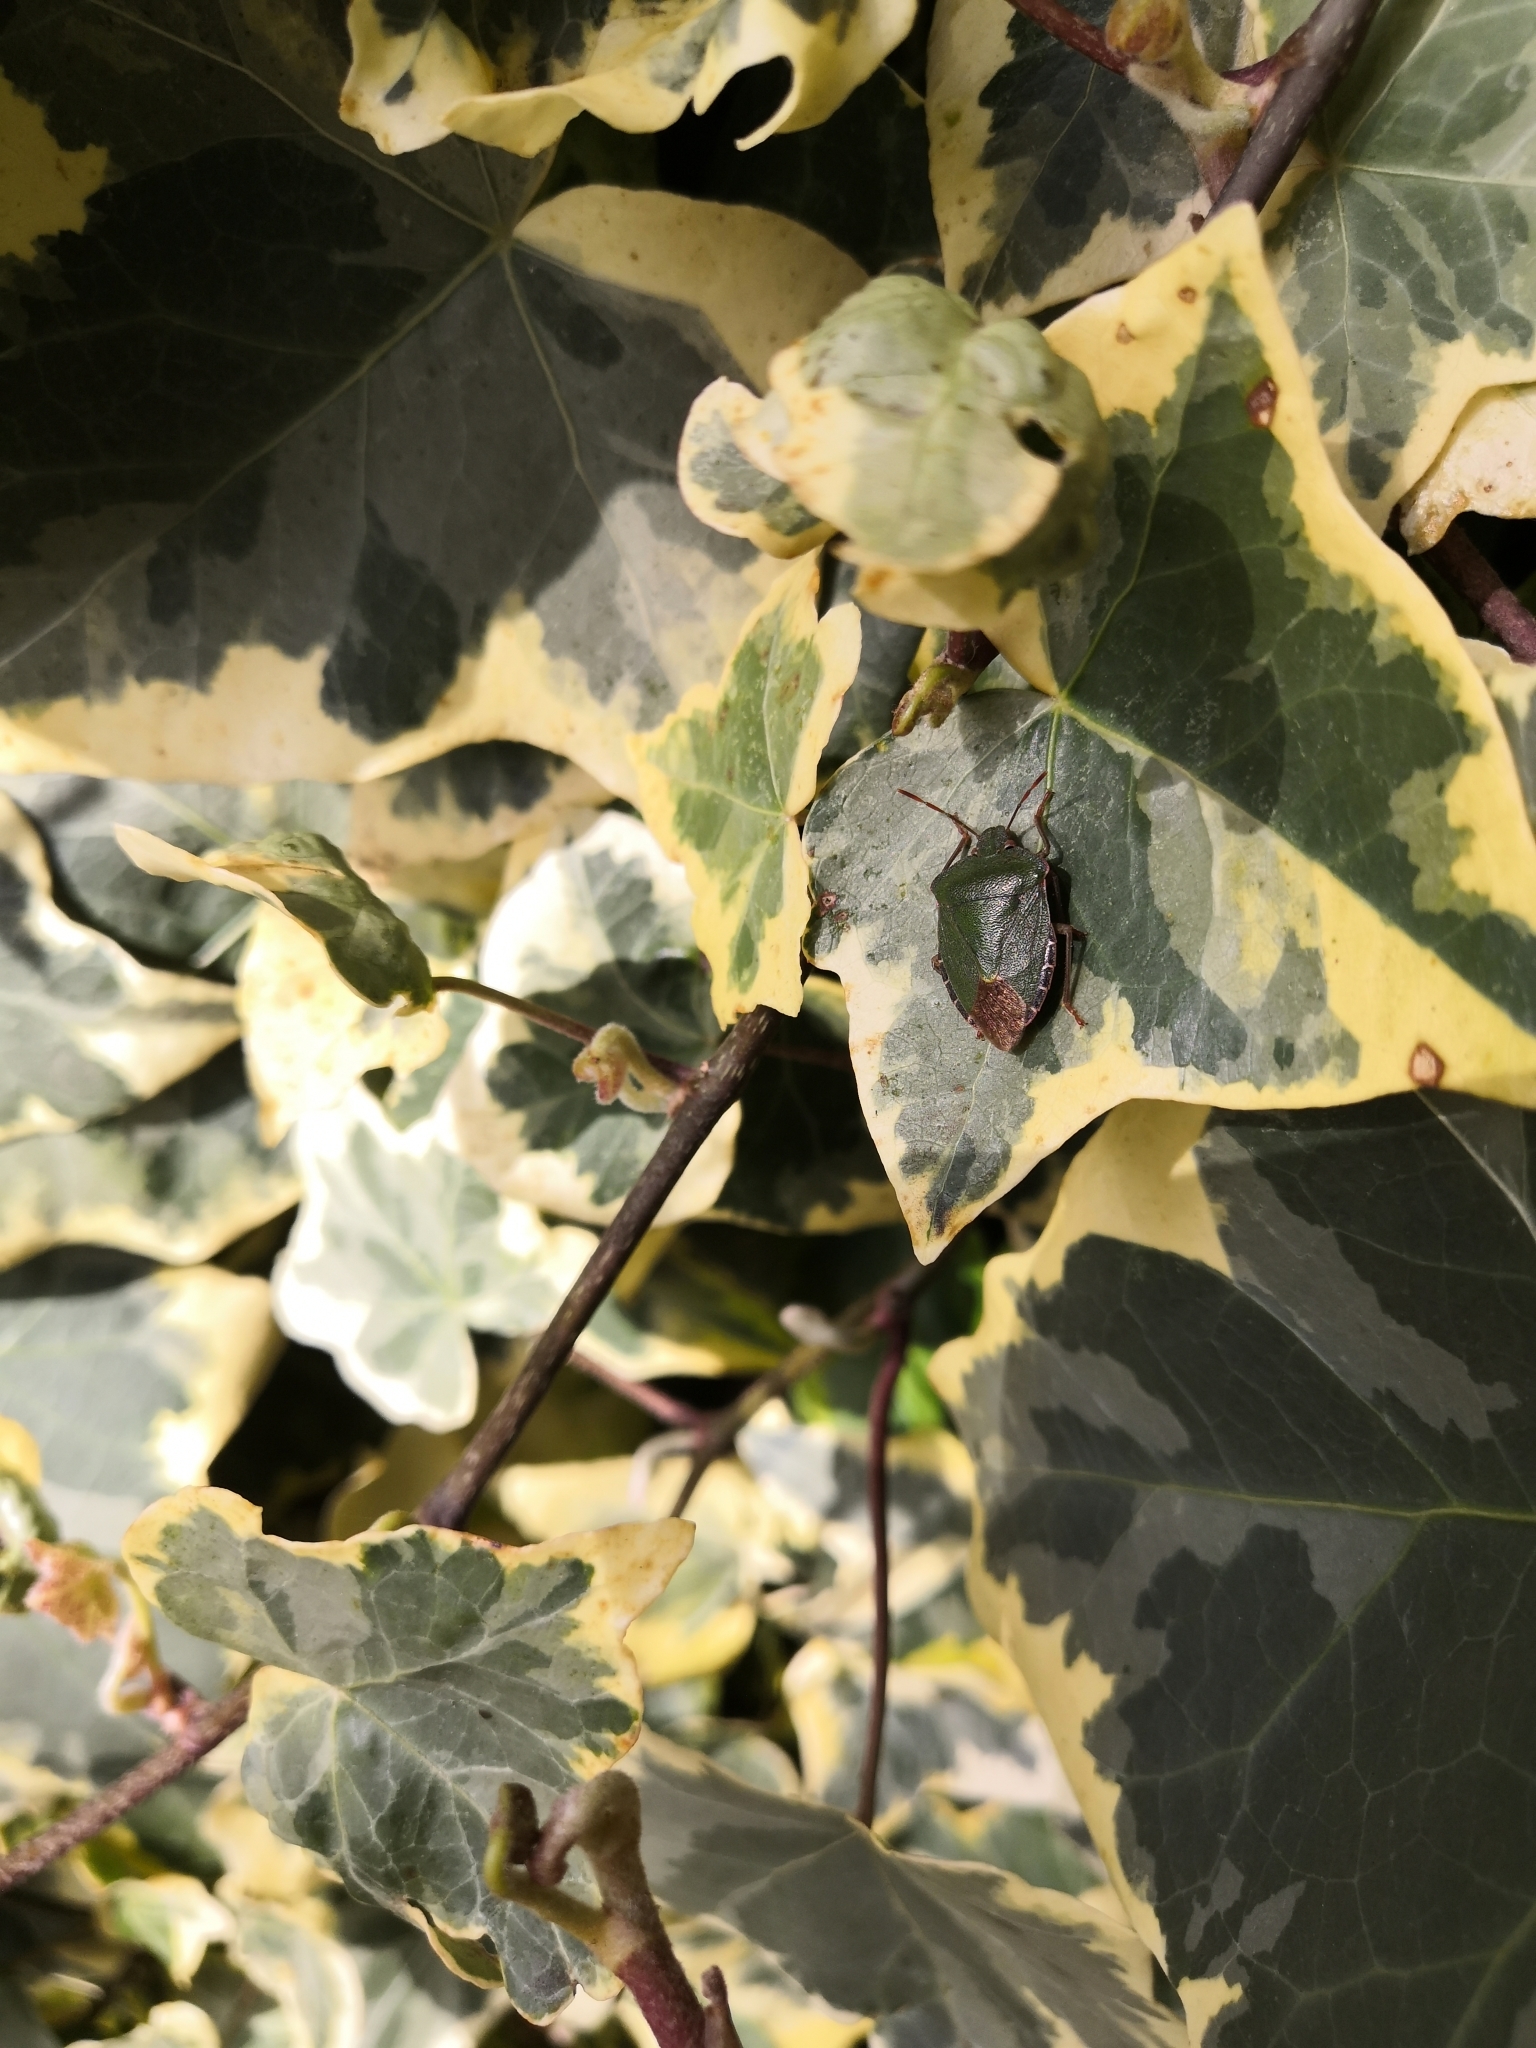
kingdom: Animalia
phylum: Arthropoda
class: Insecta
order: Hemiptera
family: Pentatomidae
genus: Palomena
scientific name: Palomena prasina
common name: Green shieldbug
